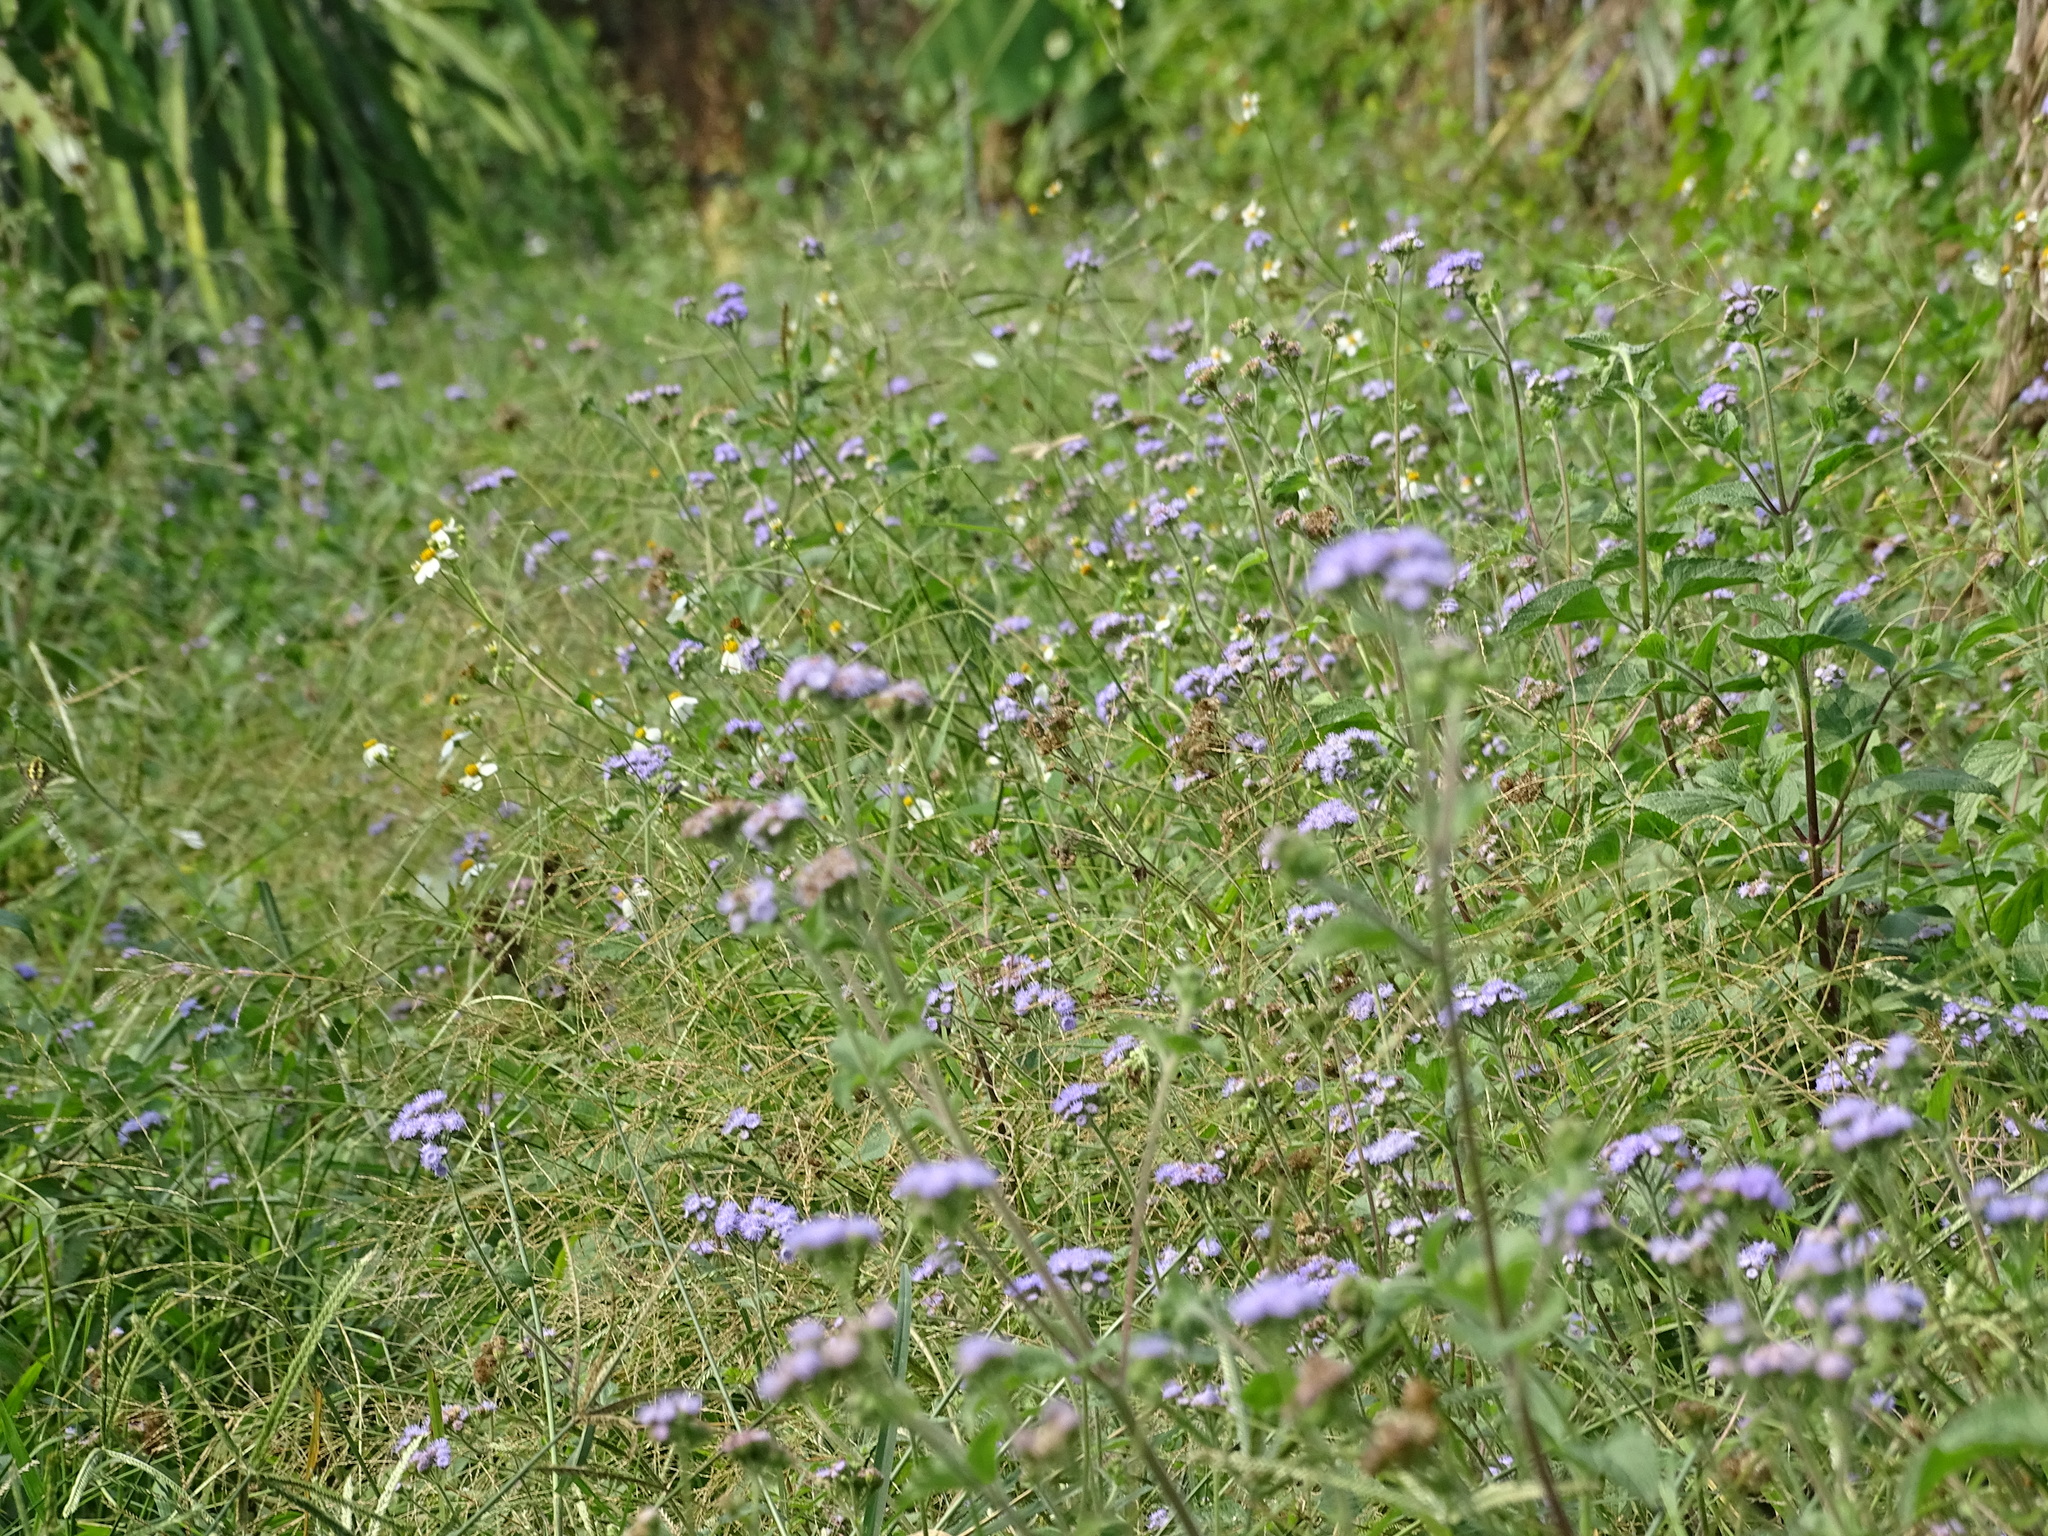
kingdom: Plantae
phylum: Tracheophyta
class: Magnoliopsida
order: Asterales
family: Asteraceae
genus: Ageratum
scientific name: Ageratum houstonianum
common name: Bluemink
